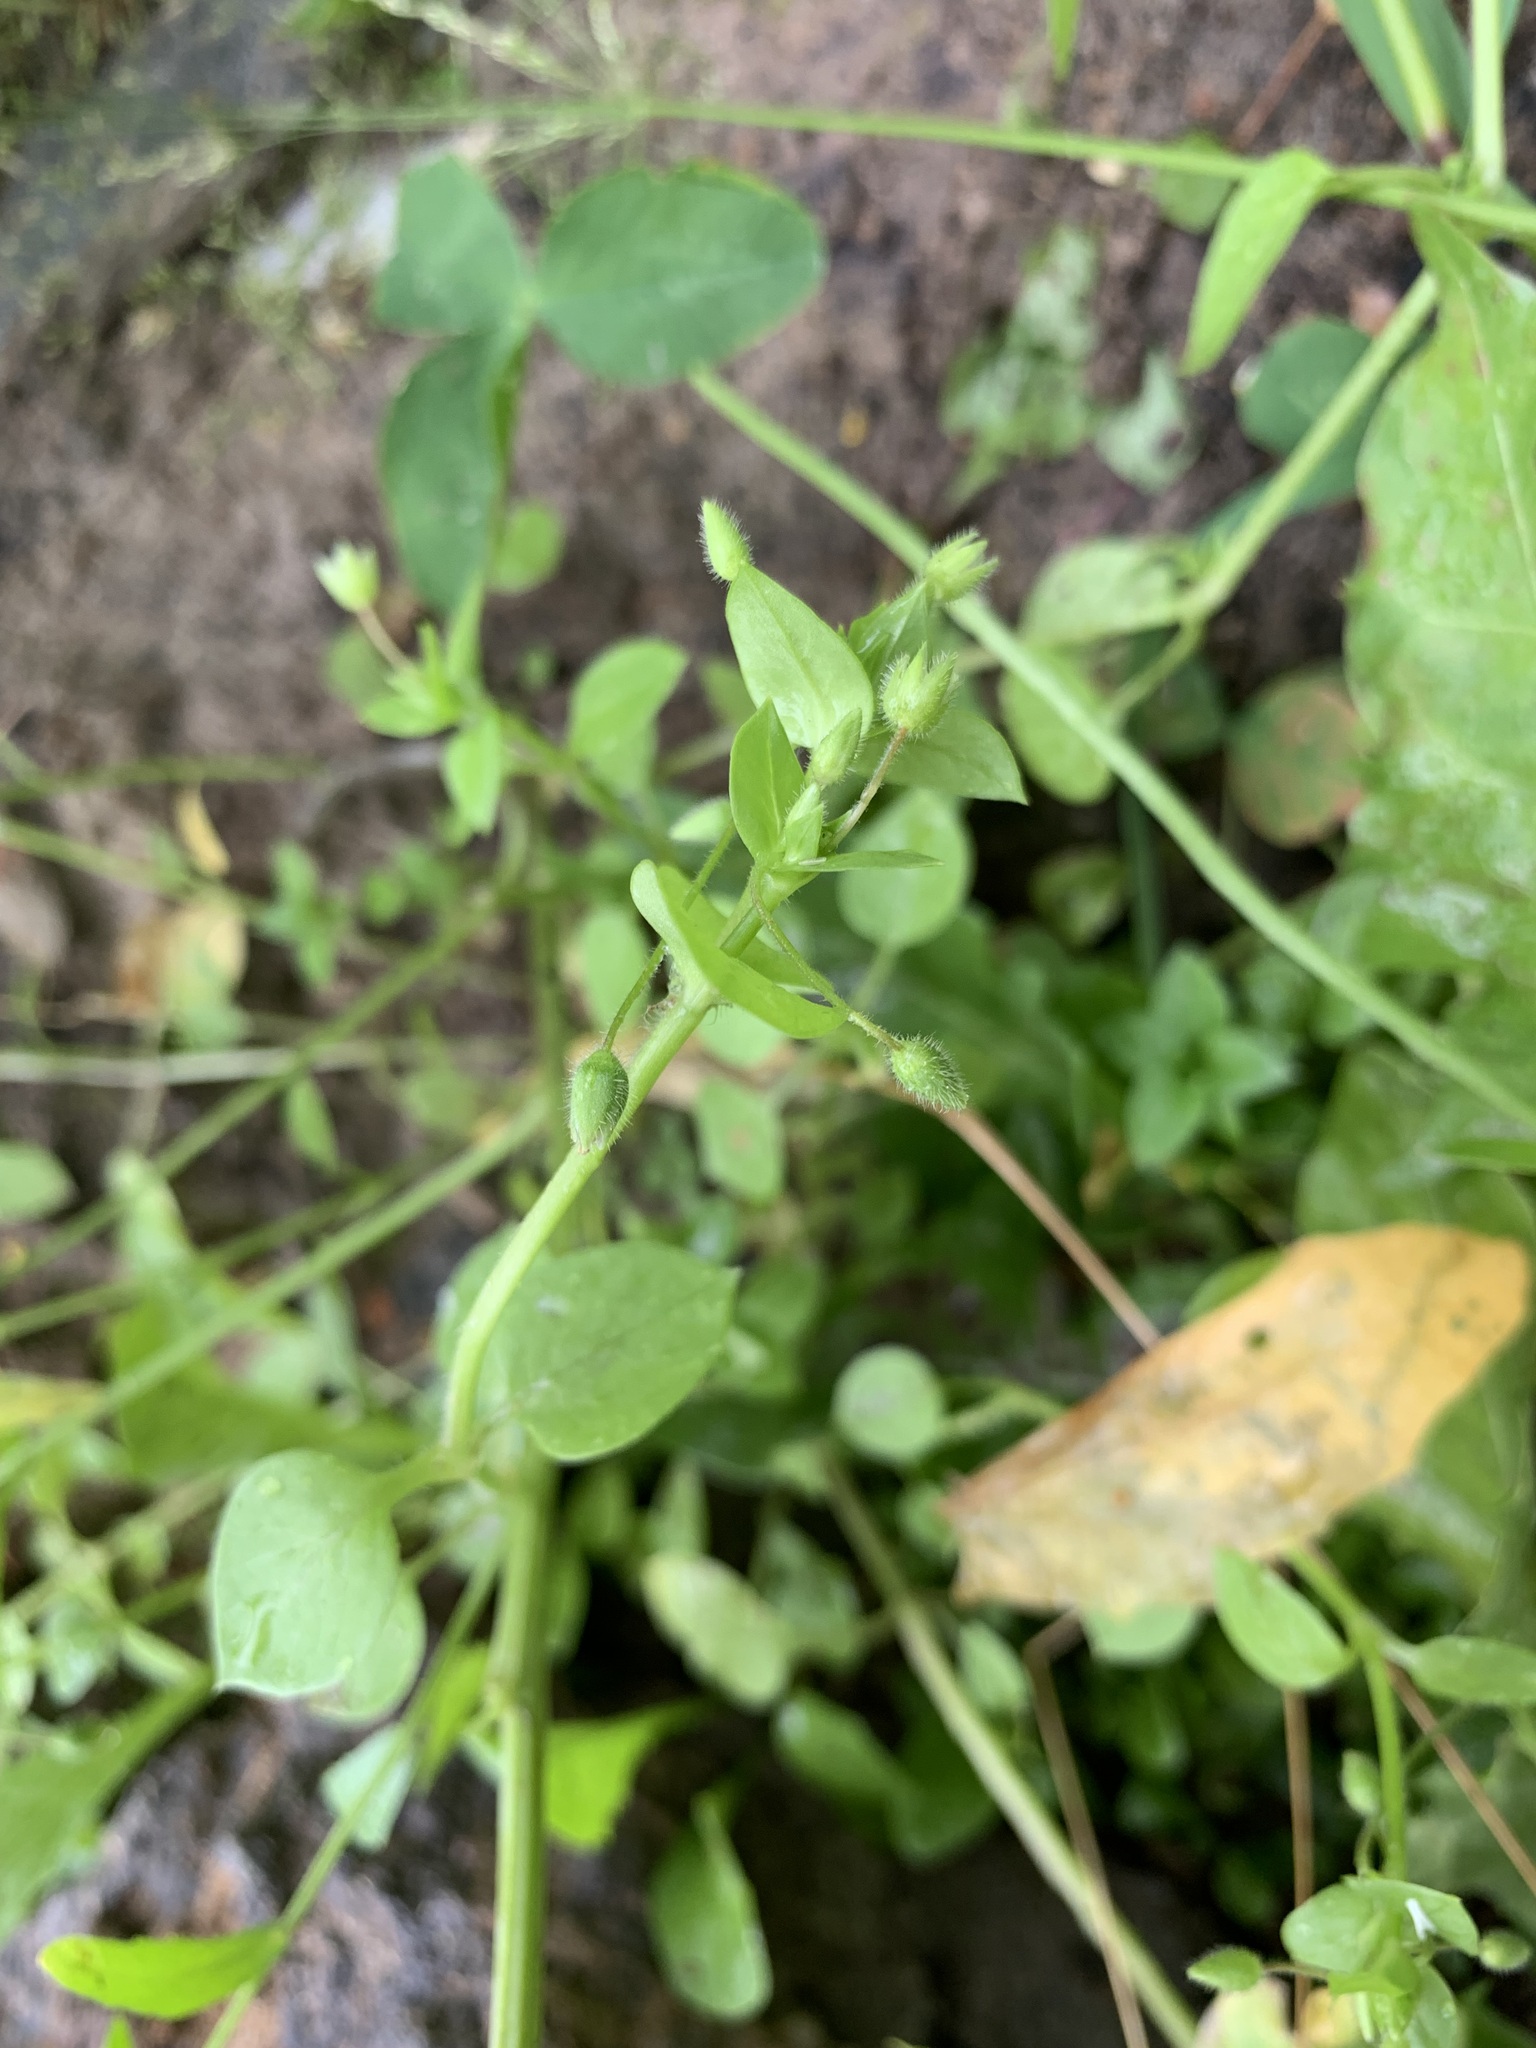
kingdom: Plantae
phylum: Tracheophyta
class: Magnoliopsida
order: Caryophyllales
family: Caryophyllaceae
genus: Stellaria
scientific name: Stellaria media
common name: Common chickweed
